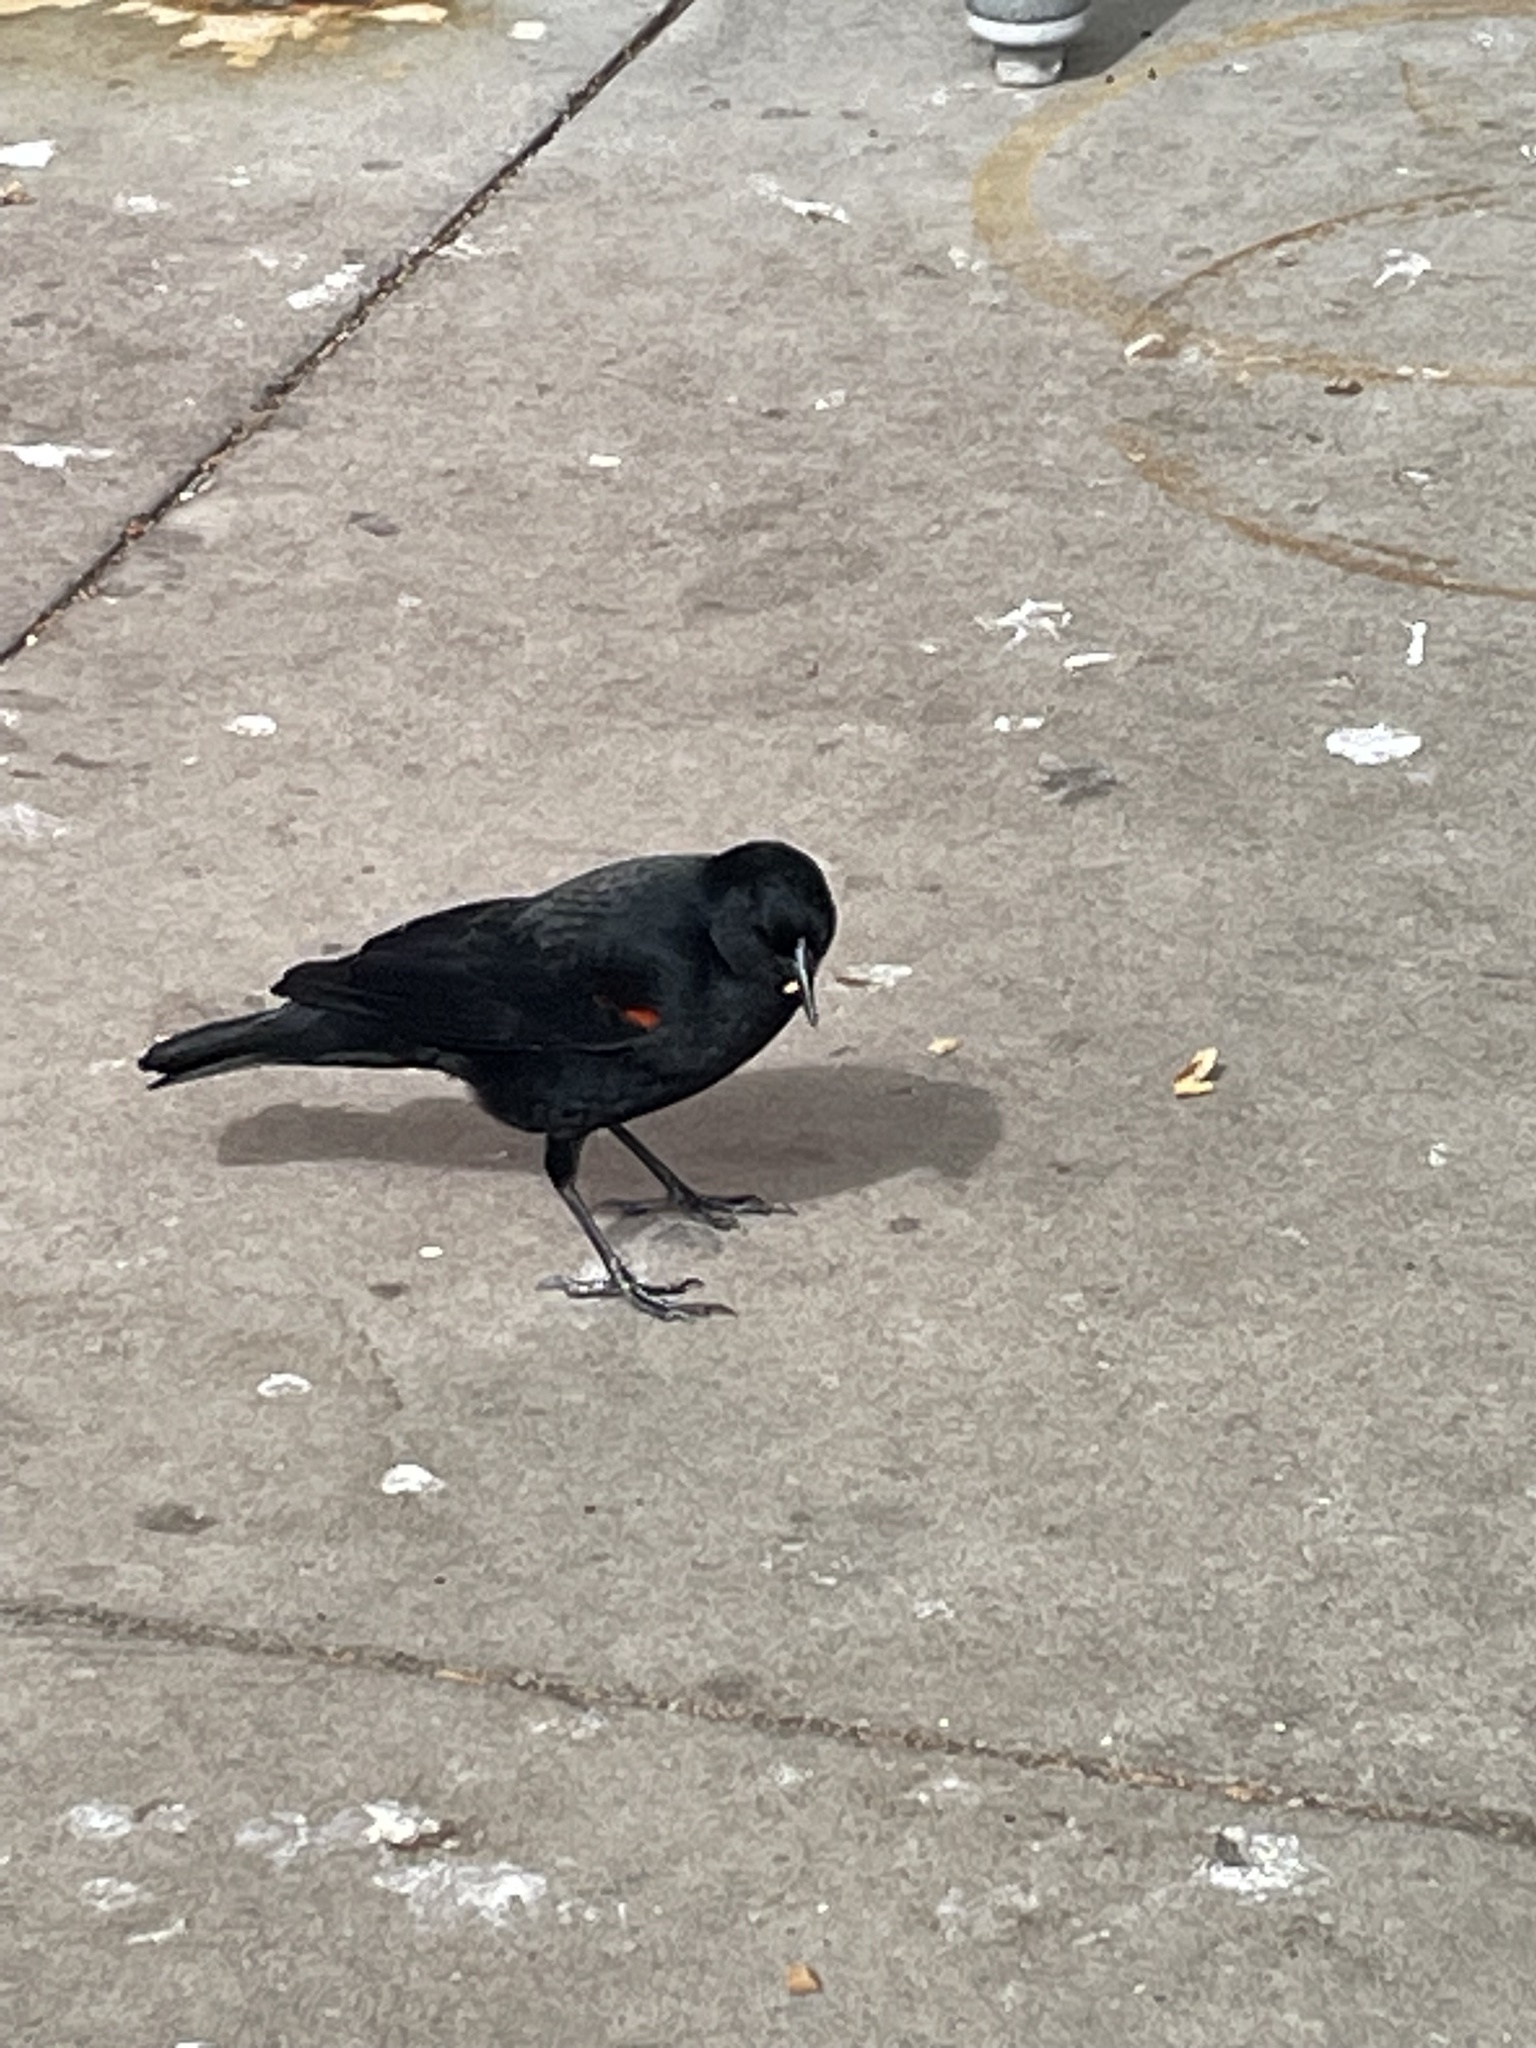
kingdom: Animalia
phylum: Chordata
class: Aves
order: Passeriformes
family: Icteridae
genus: Agelaius
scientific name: Agelaius phoeniceus
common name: Red-winged blackbird
